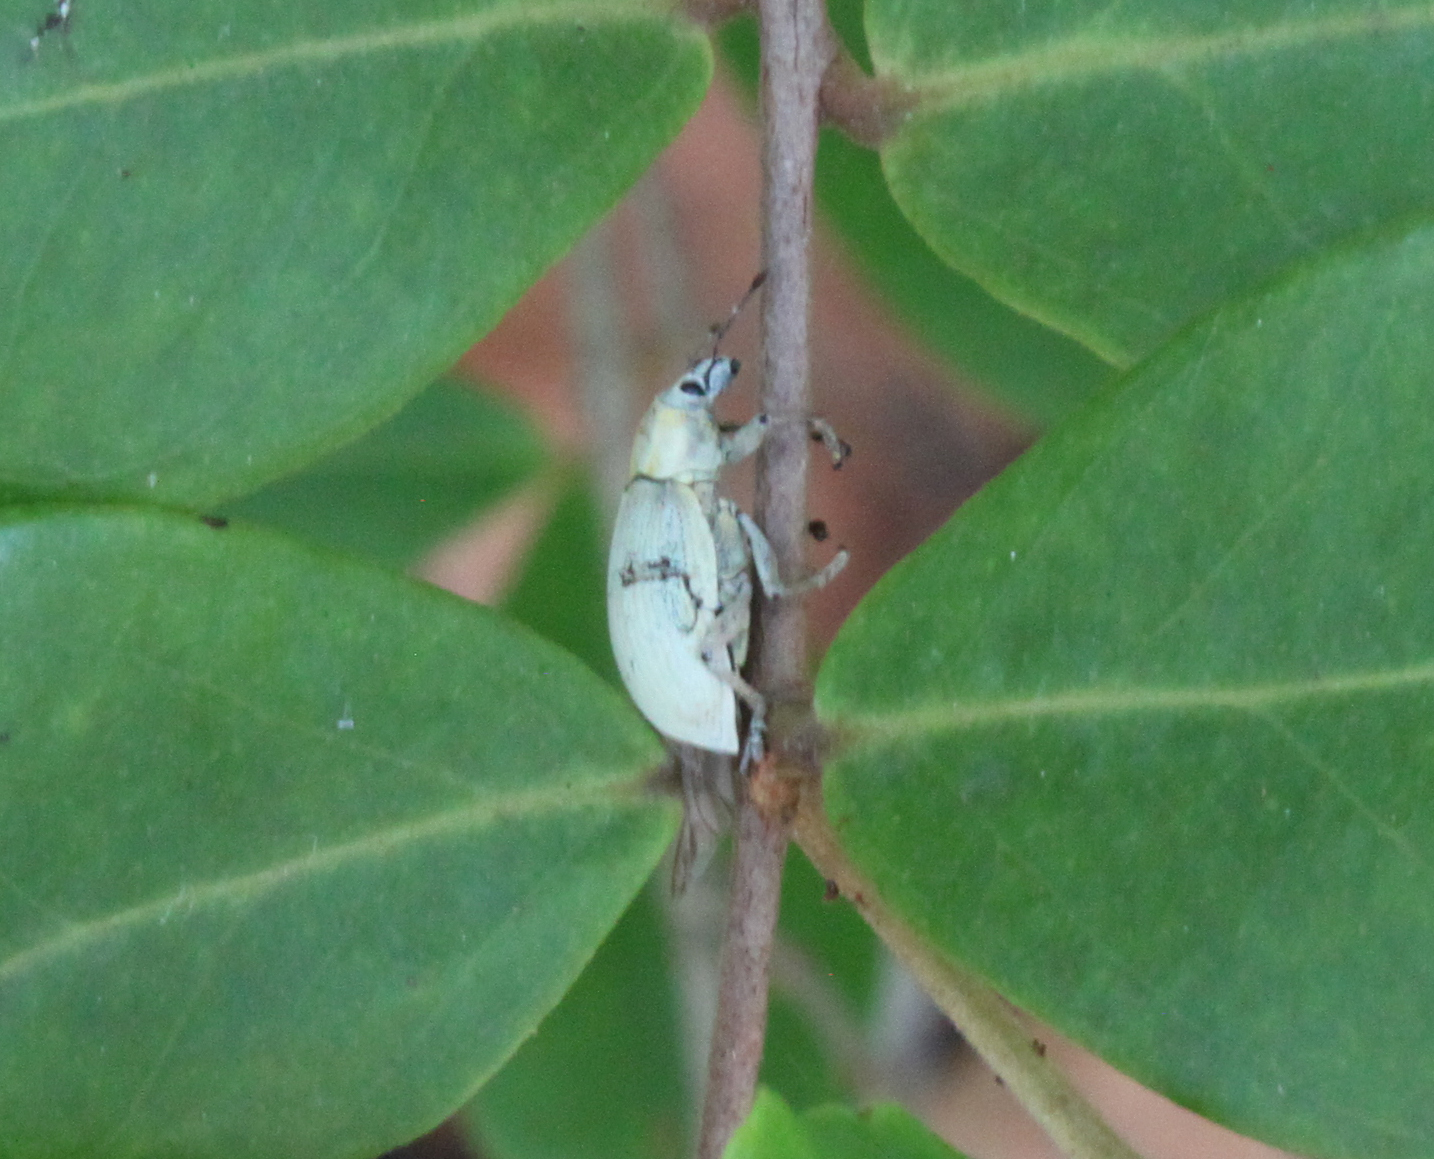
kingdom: Animalia
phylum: Arthropoda
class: Insecta
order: Coleoptera
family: Curculionidae
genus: Pachnaeus
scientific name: Pachnaeus litus
